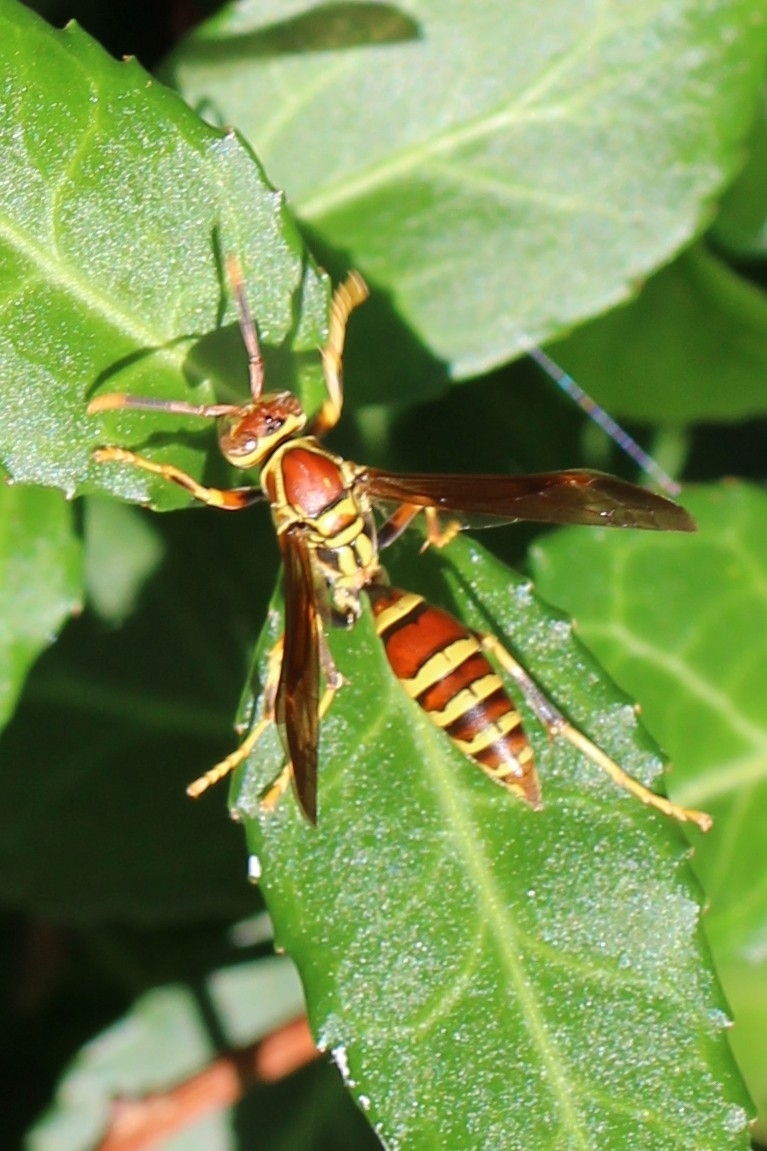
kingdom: Animalia
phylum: Arthropoda
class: Insecta
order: Hymenoptera
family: Eumenidae
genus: Polistes
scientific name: Polistes exclamans
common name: Paper wasp
